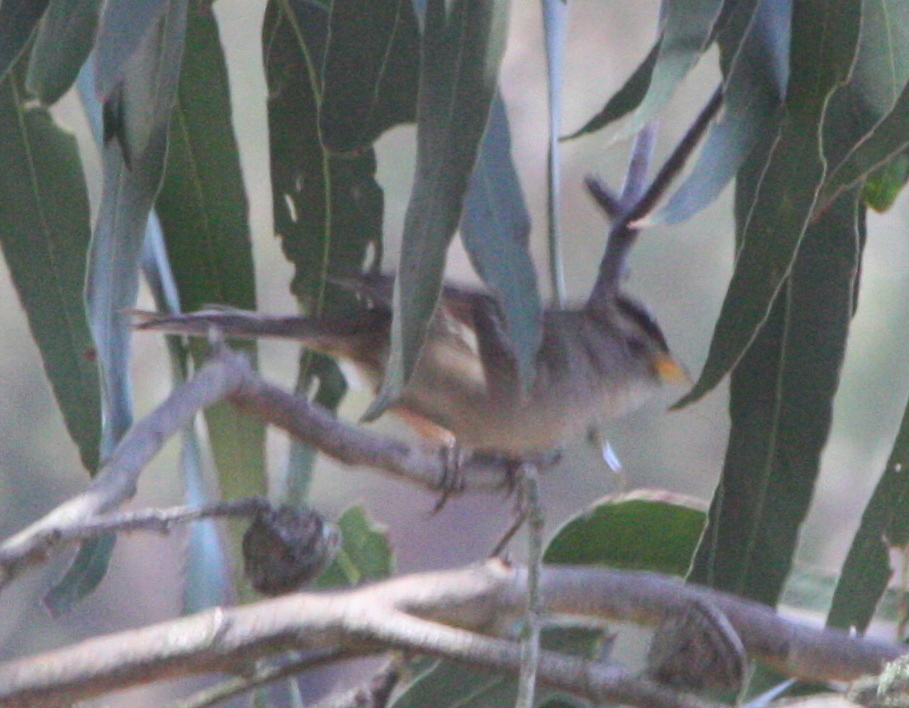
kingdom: Animalia
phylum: Chordata
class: Aves
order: Passeriformes
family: Passerellidae
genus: Zonotrichia
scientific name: Zonotrichia leucophrys
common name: White-crowned sparrow
